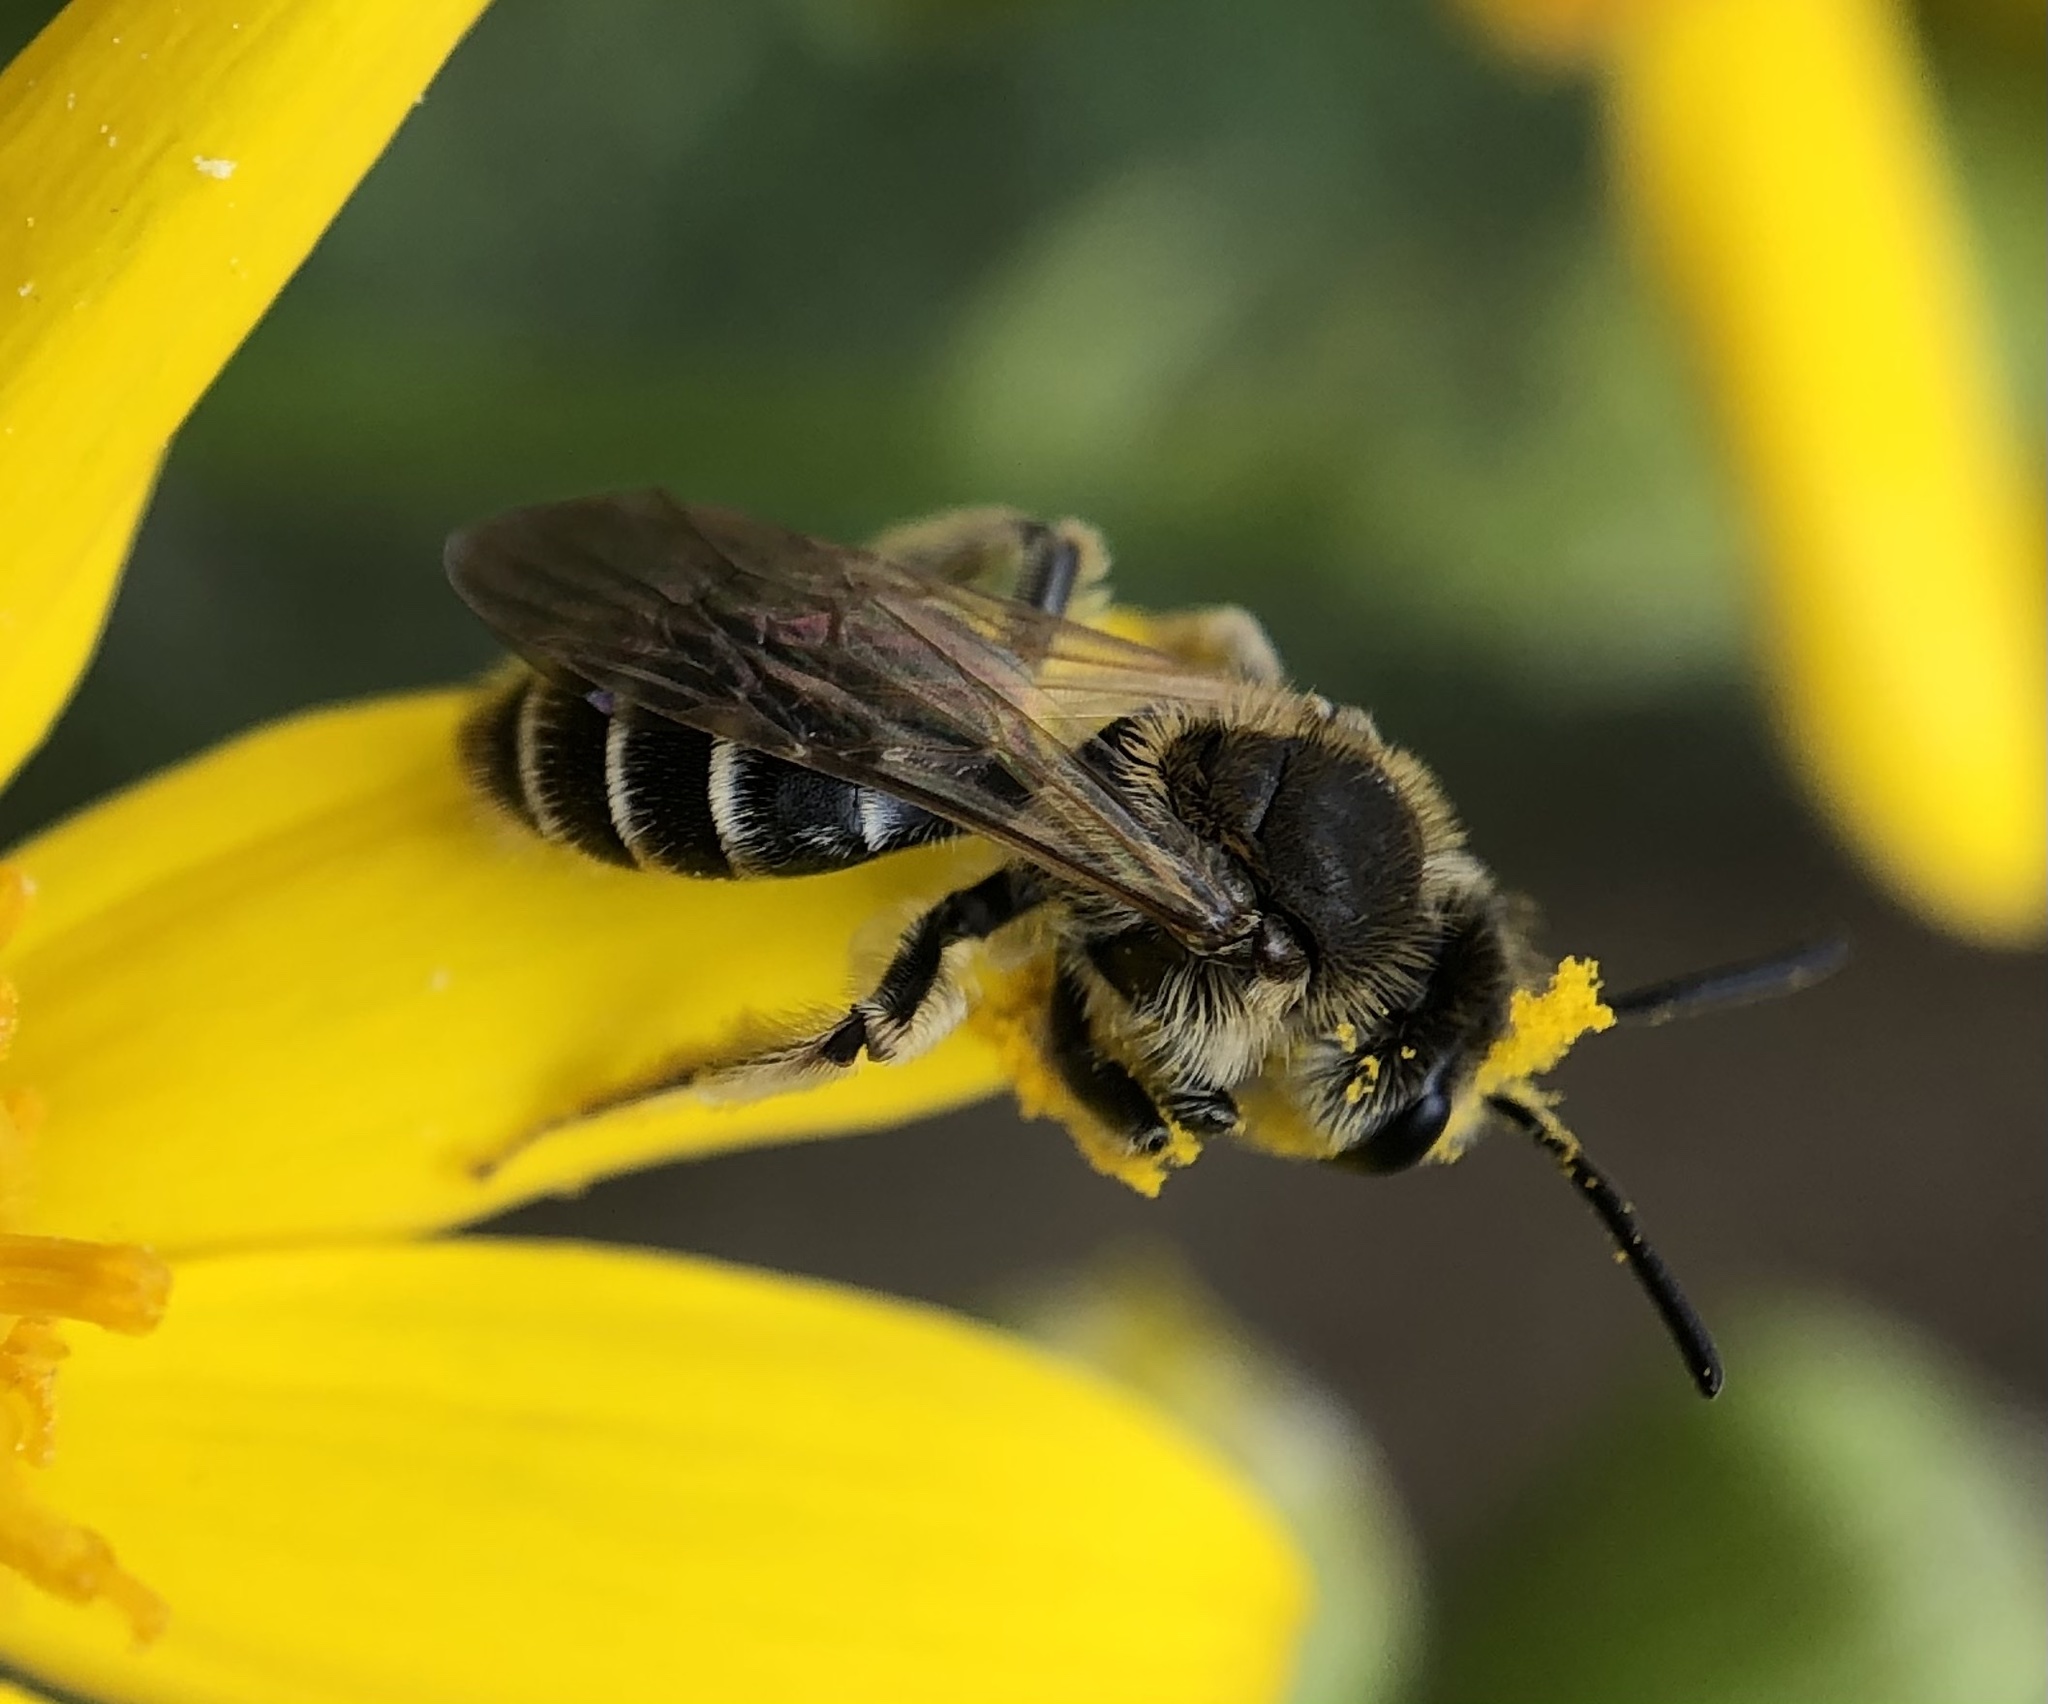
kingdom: Animalia
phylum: Arthropoda
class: Insecta
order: Hymenoptera
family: Andrenidae
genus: Andrena
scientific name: Andrena nasonii
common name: Nason's mining bee
